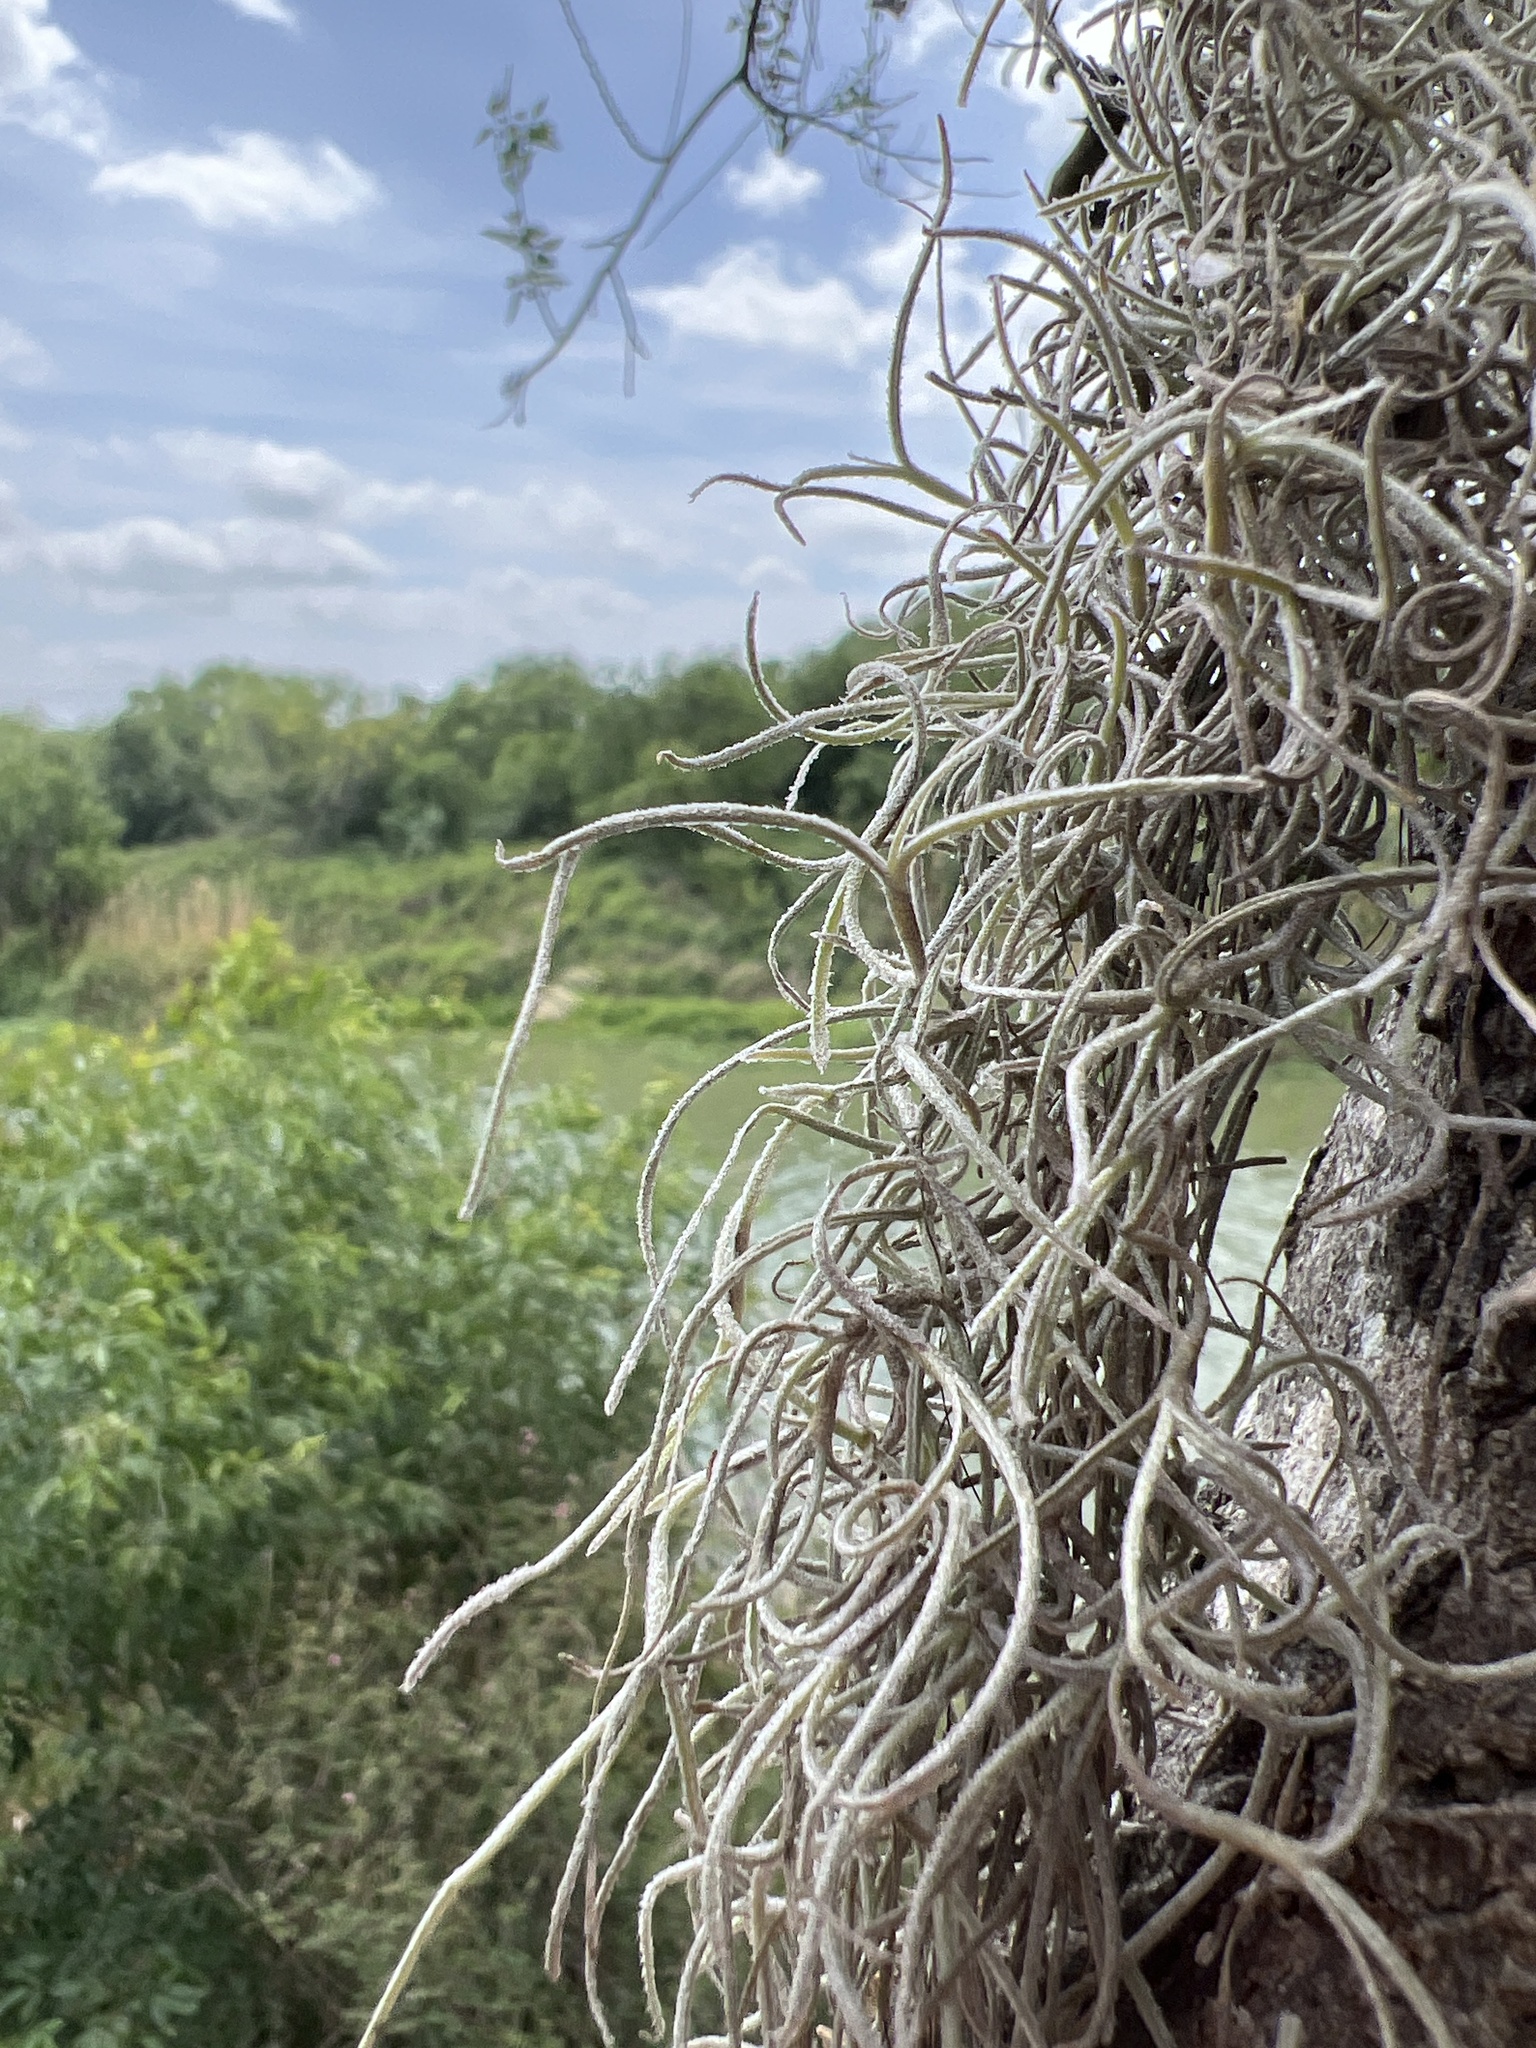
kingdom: Plantae
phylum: Tracheophyta
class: Liliopsida
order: Poales
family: Bromeliaceae
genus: Tillandsia
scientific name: Tillandsia usneoides
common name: Spanish moss
